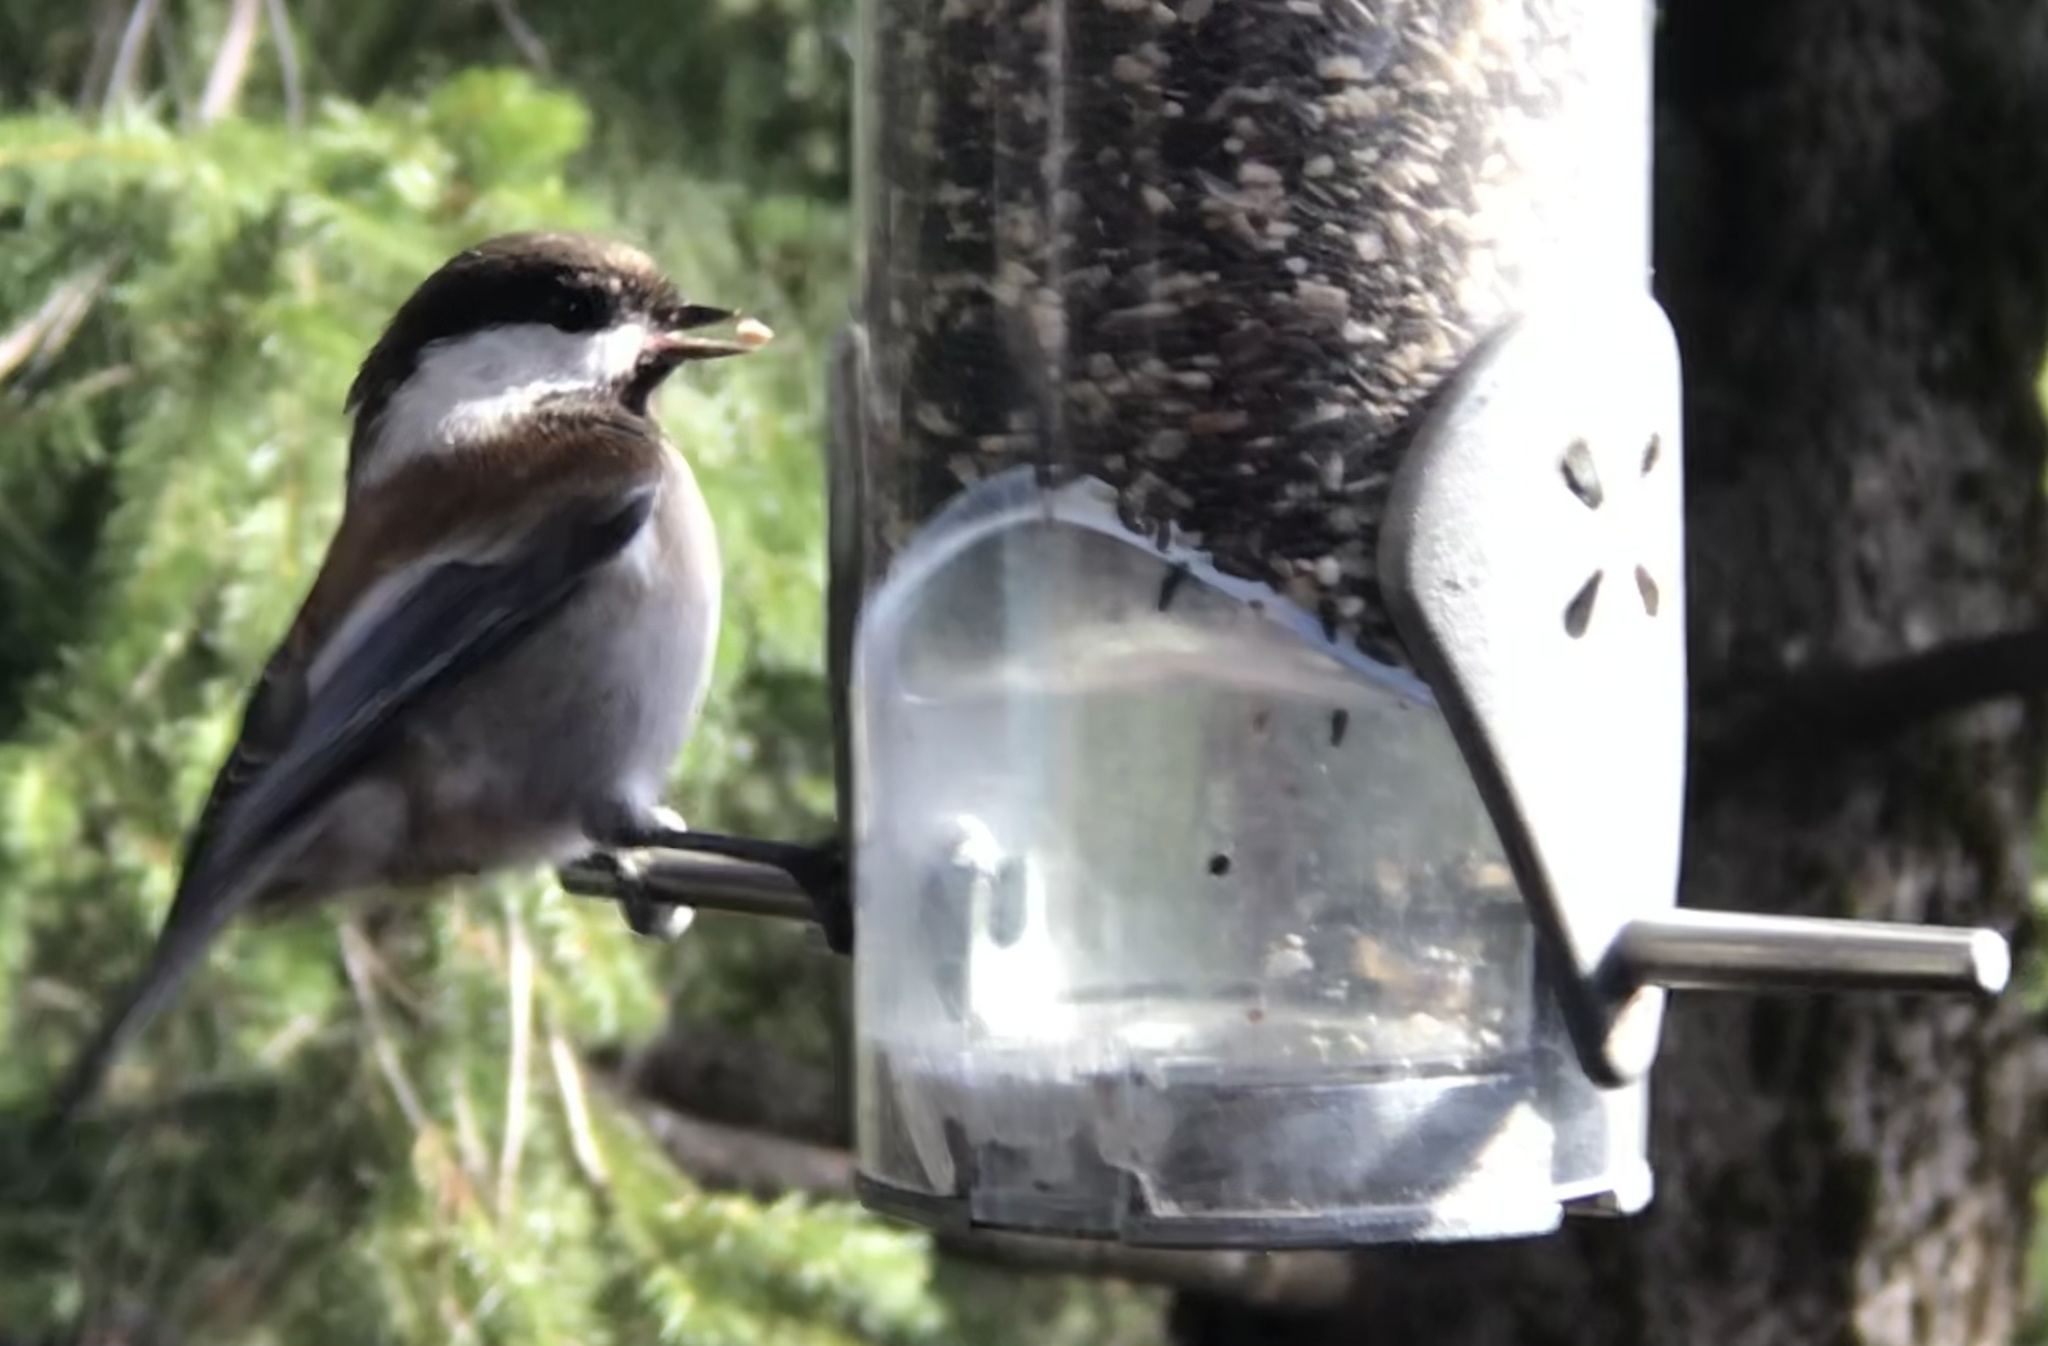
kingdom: Animalia
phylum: Chordata
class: Aves
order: Passeriformes
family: Paridae
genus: Poecile
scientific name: Poecile rufescens
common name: Chestnut-backed chickadee
